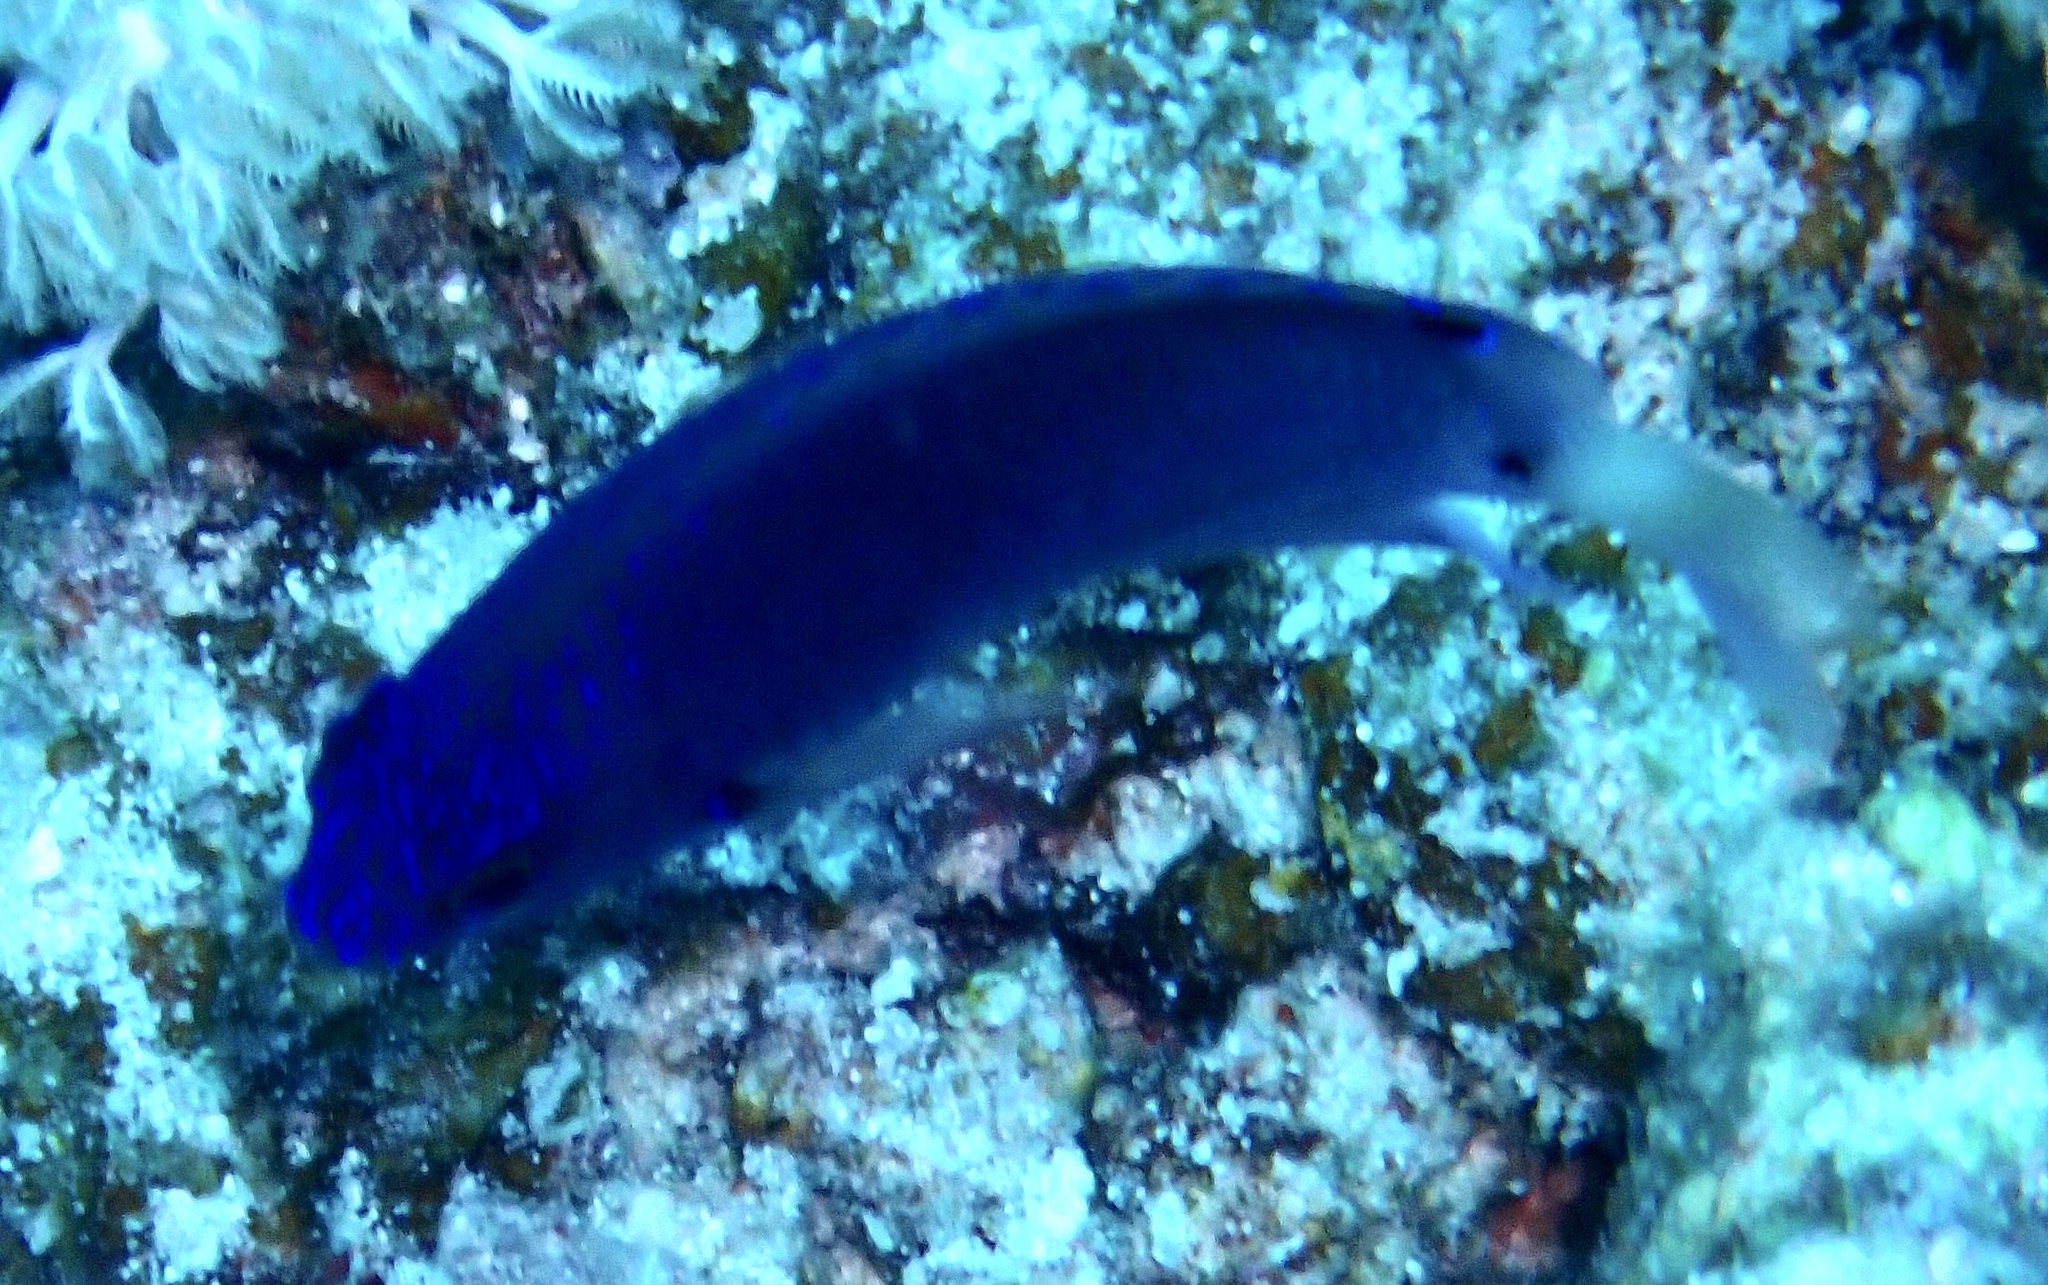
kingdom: Animalia
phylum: Chordata
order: Perciformes
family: Pomacentridae
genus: Pomacentrus
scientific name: Pomacentrus trichrourus
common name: Paletail damsel
